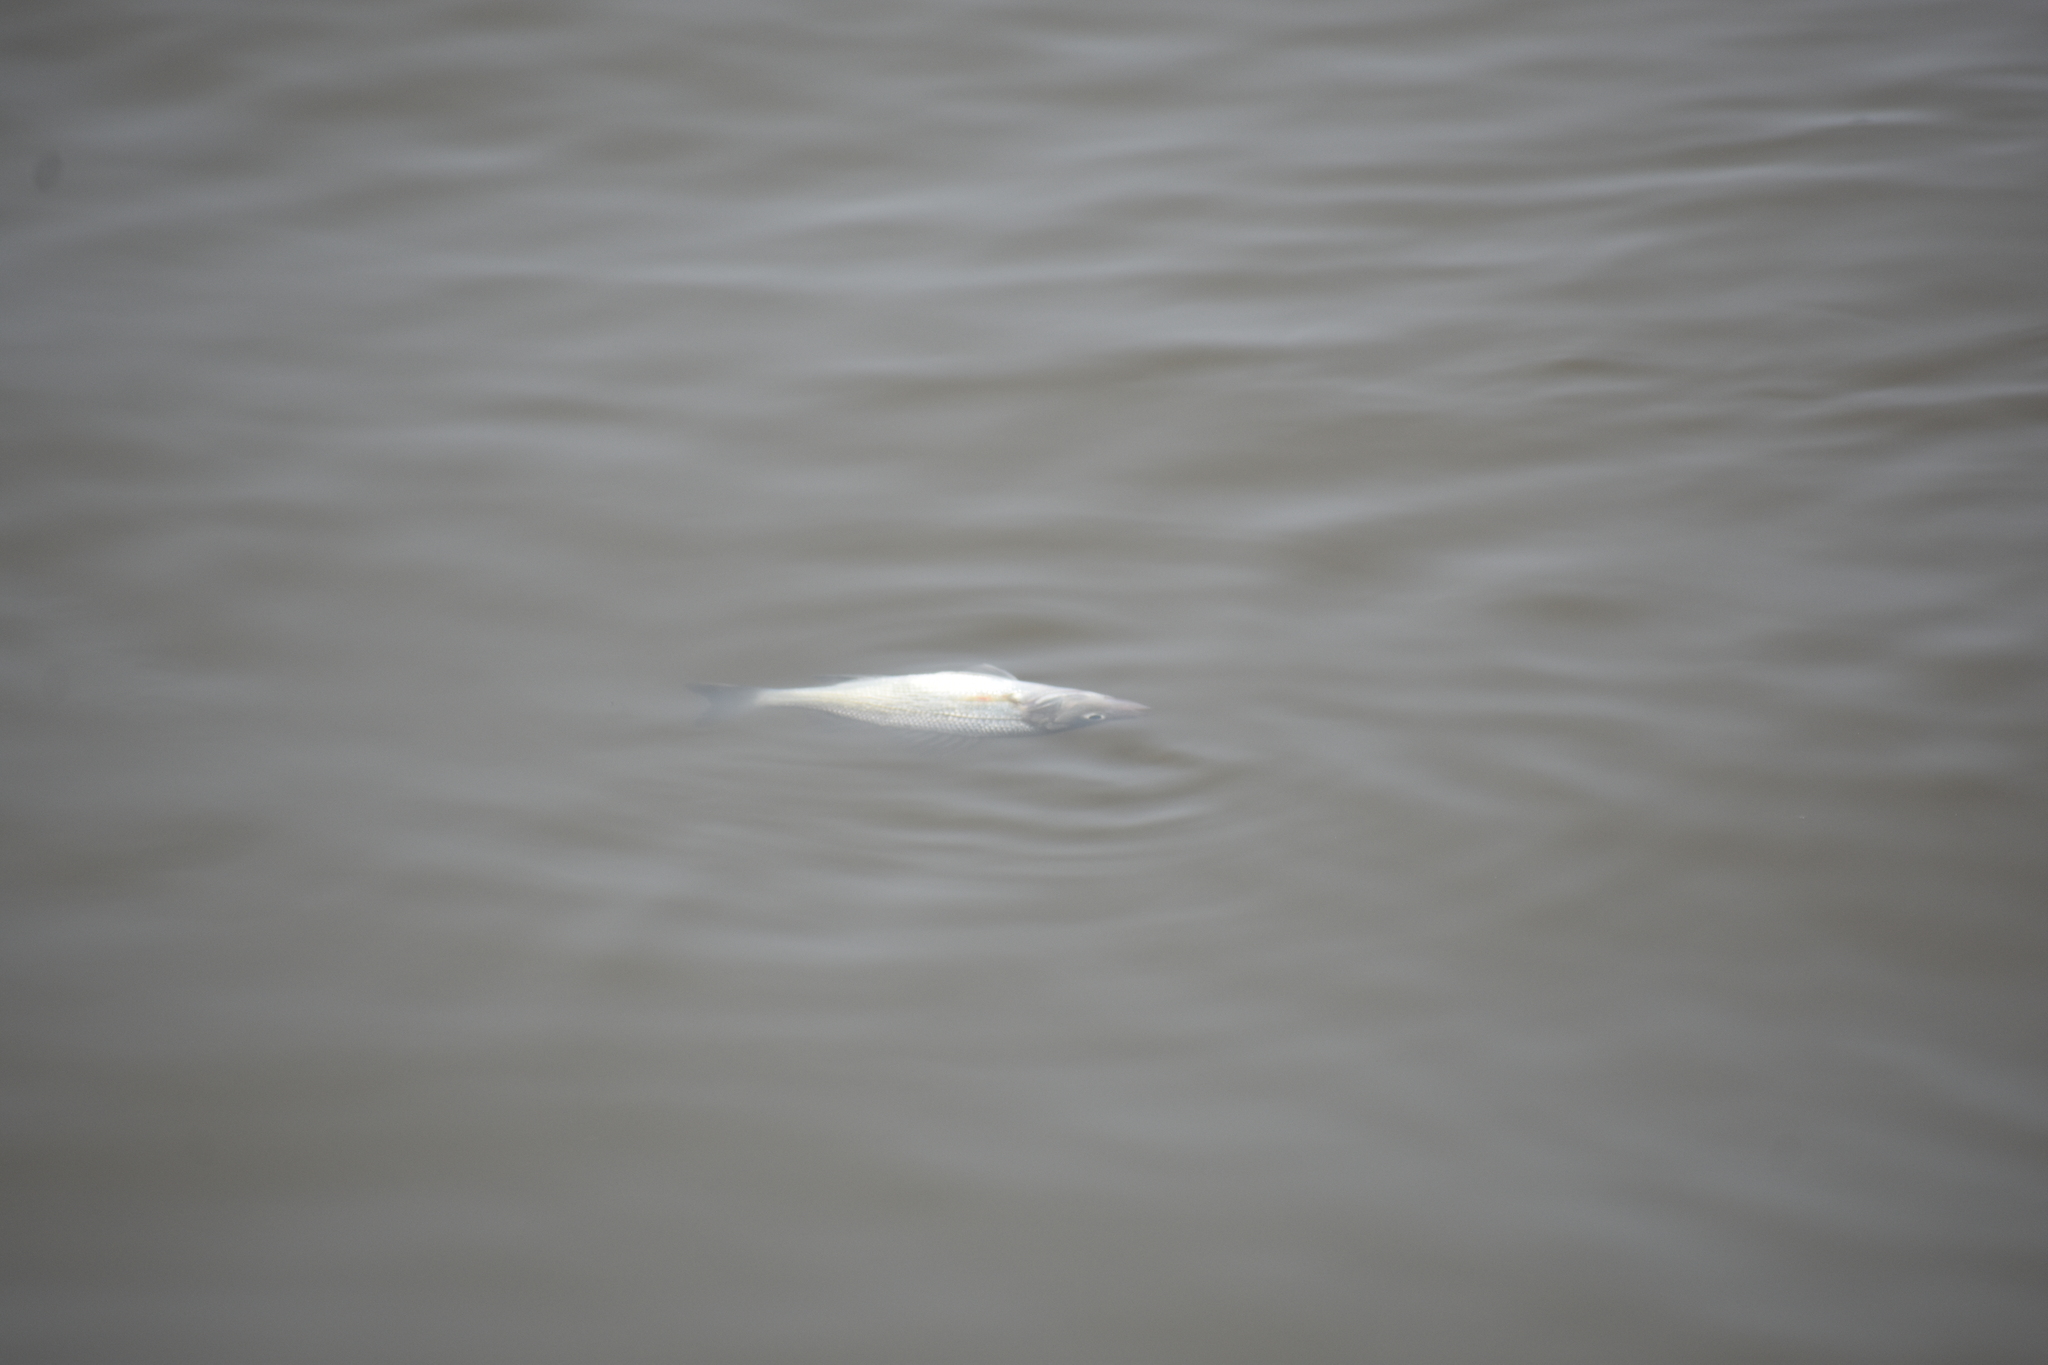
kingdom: Animalia
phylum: Chordata
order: Perciformes
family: Moronidae
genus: Morone
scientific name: Morone americana
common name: White perch
